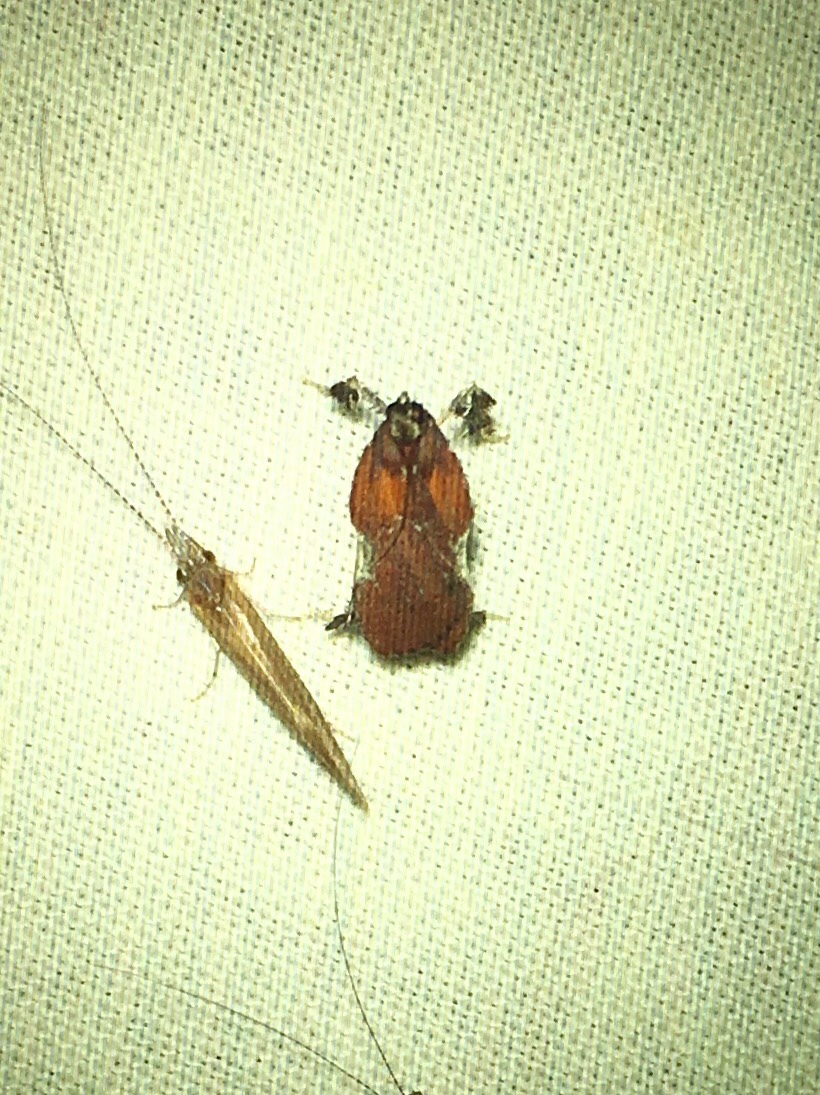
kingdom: Animalia
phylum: Arthropoda
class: Insecta
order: Lepidoptera
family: Pyralidae
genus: Galasa
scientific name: Galasa nigrinodis
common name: Boxwood leaftier moth
